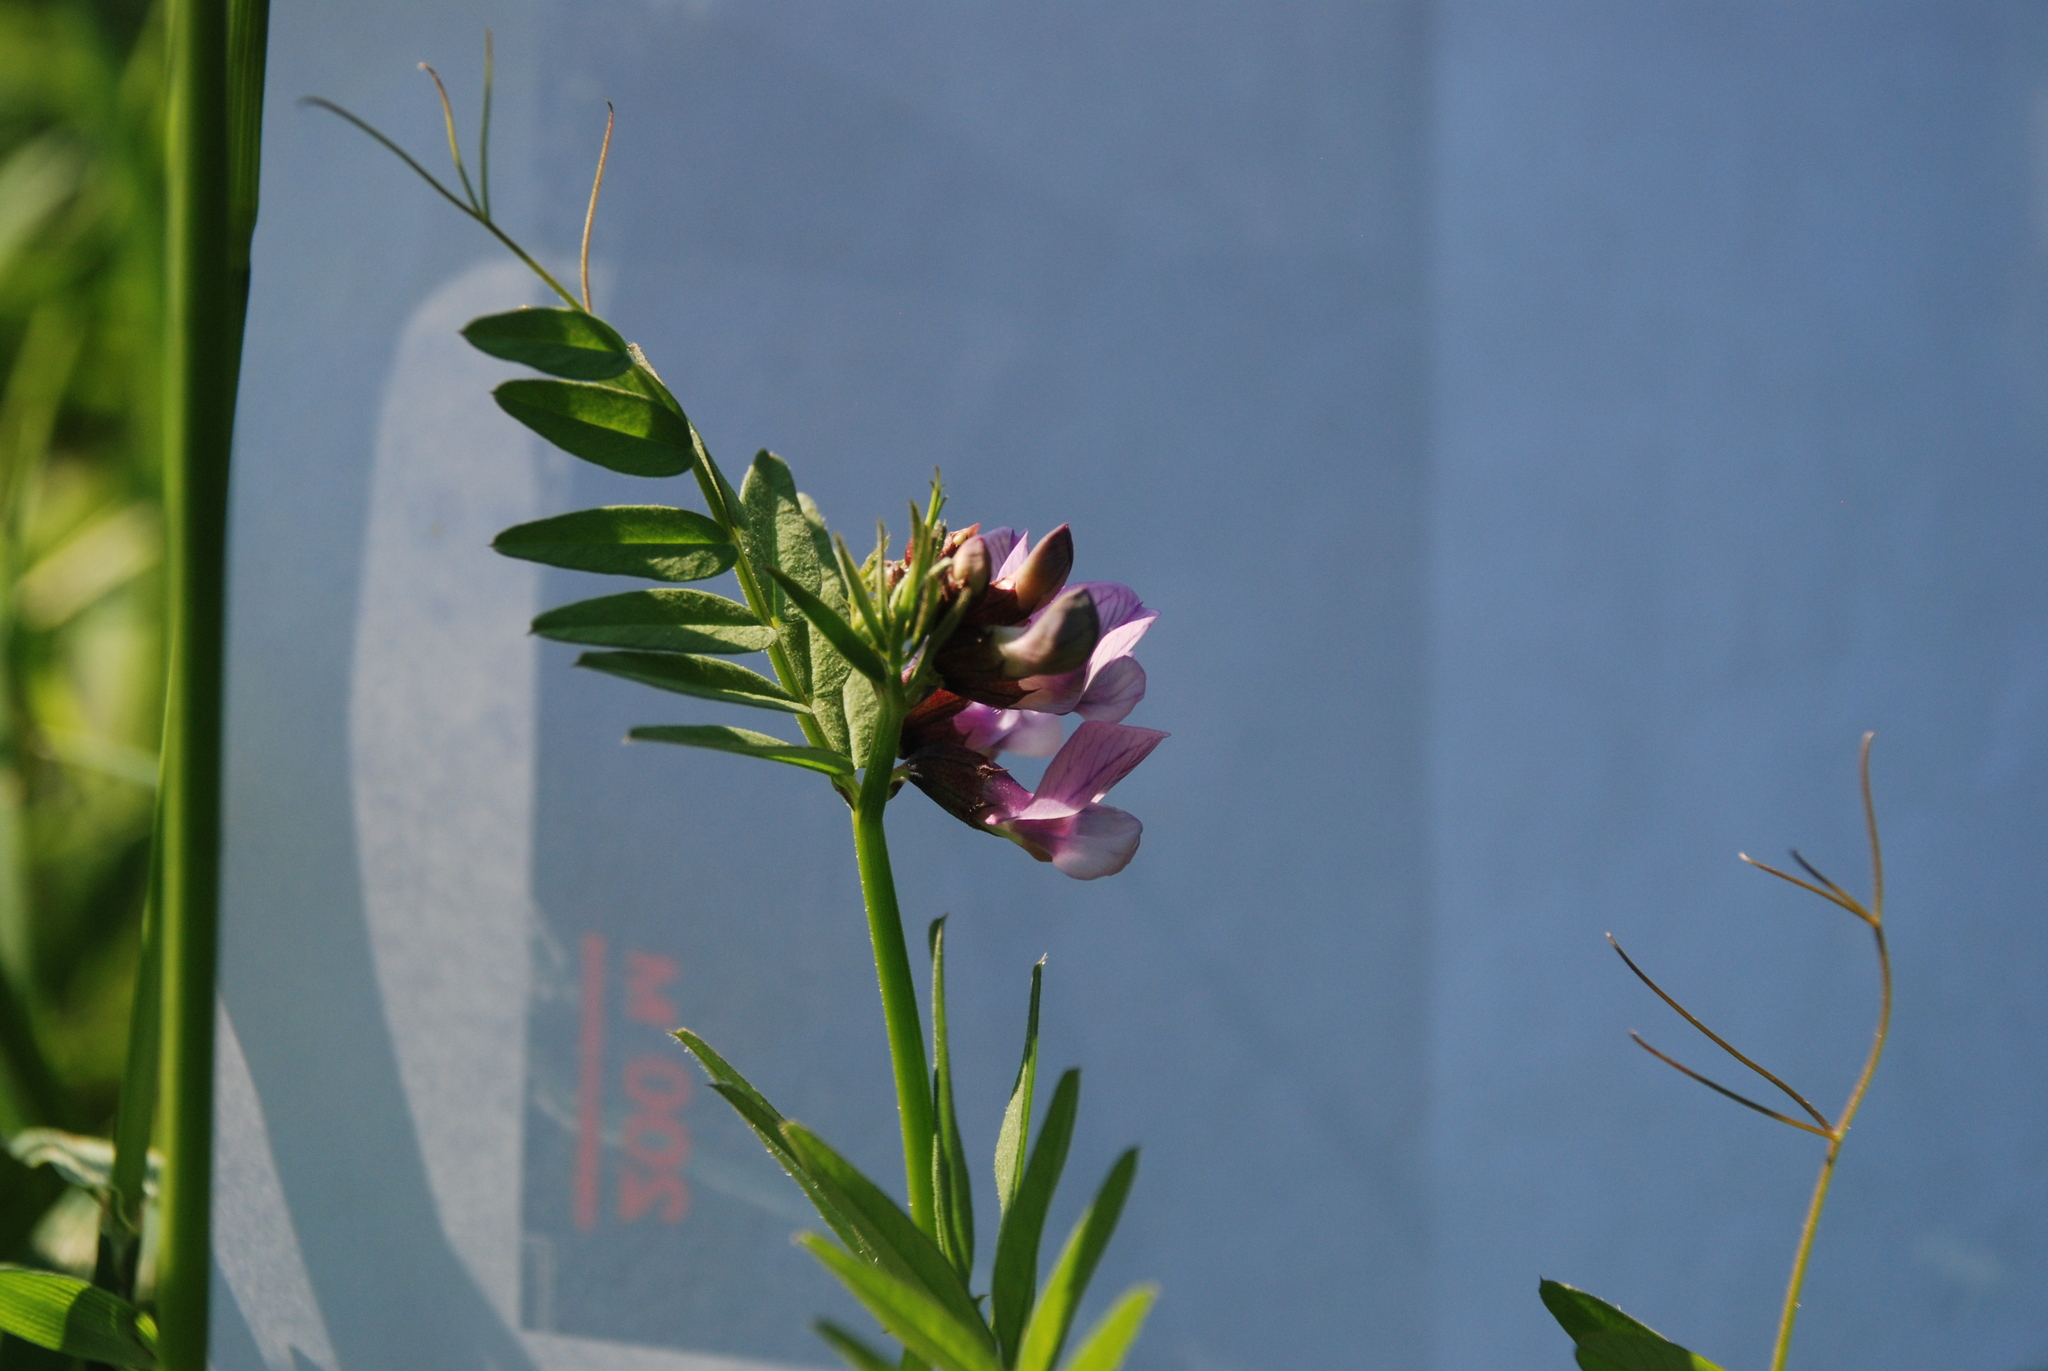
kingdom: Plantae
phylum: Tracheophyta
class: Magnoliopsida
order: Fabales
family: Fabaceae
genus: Vicia
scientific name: Vicia sepium
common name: Bush vetch
